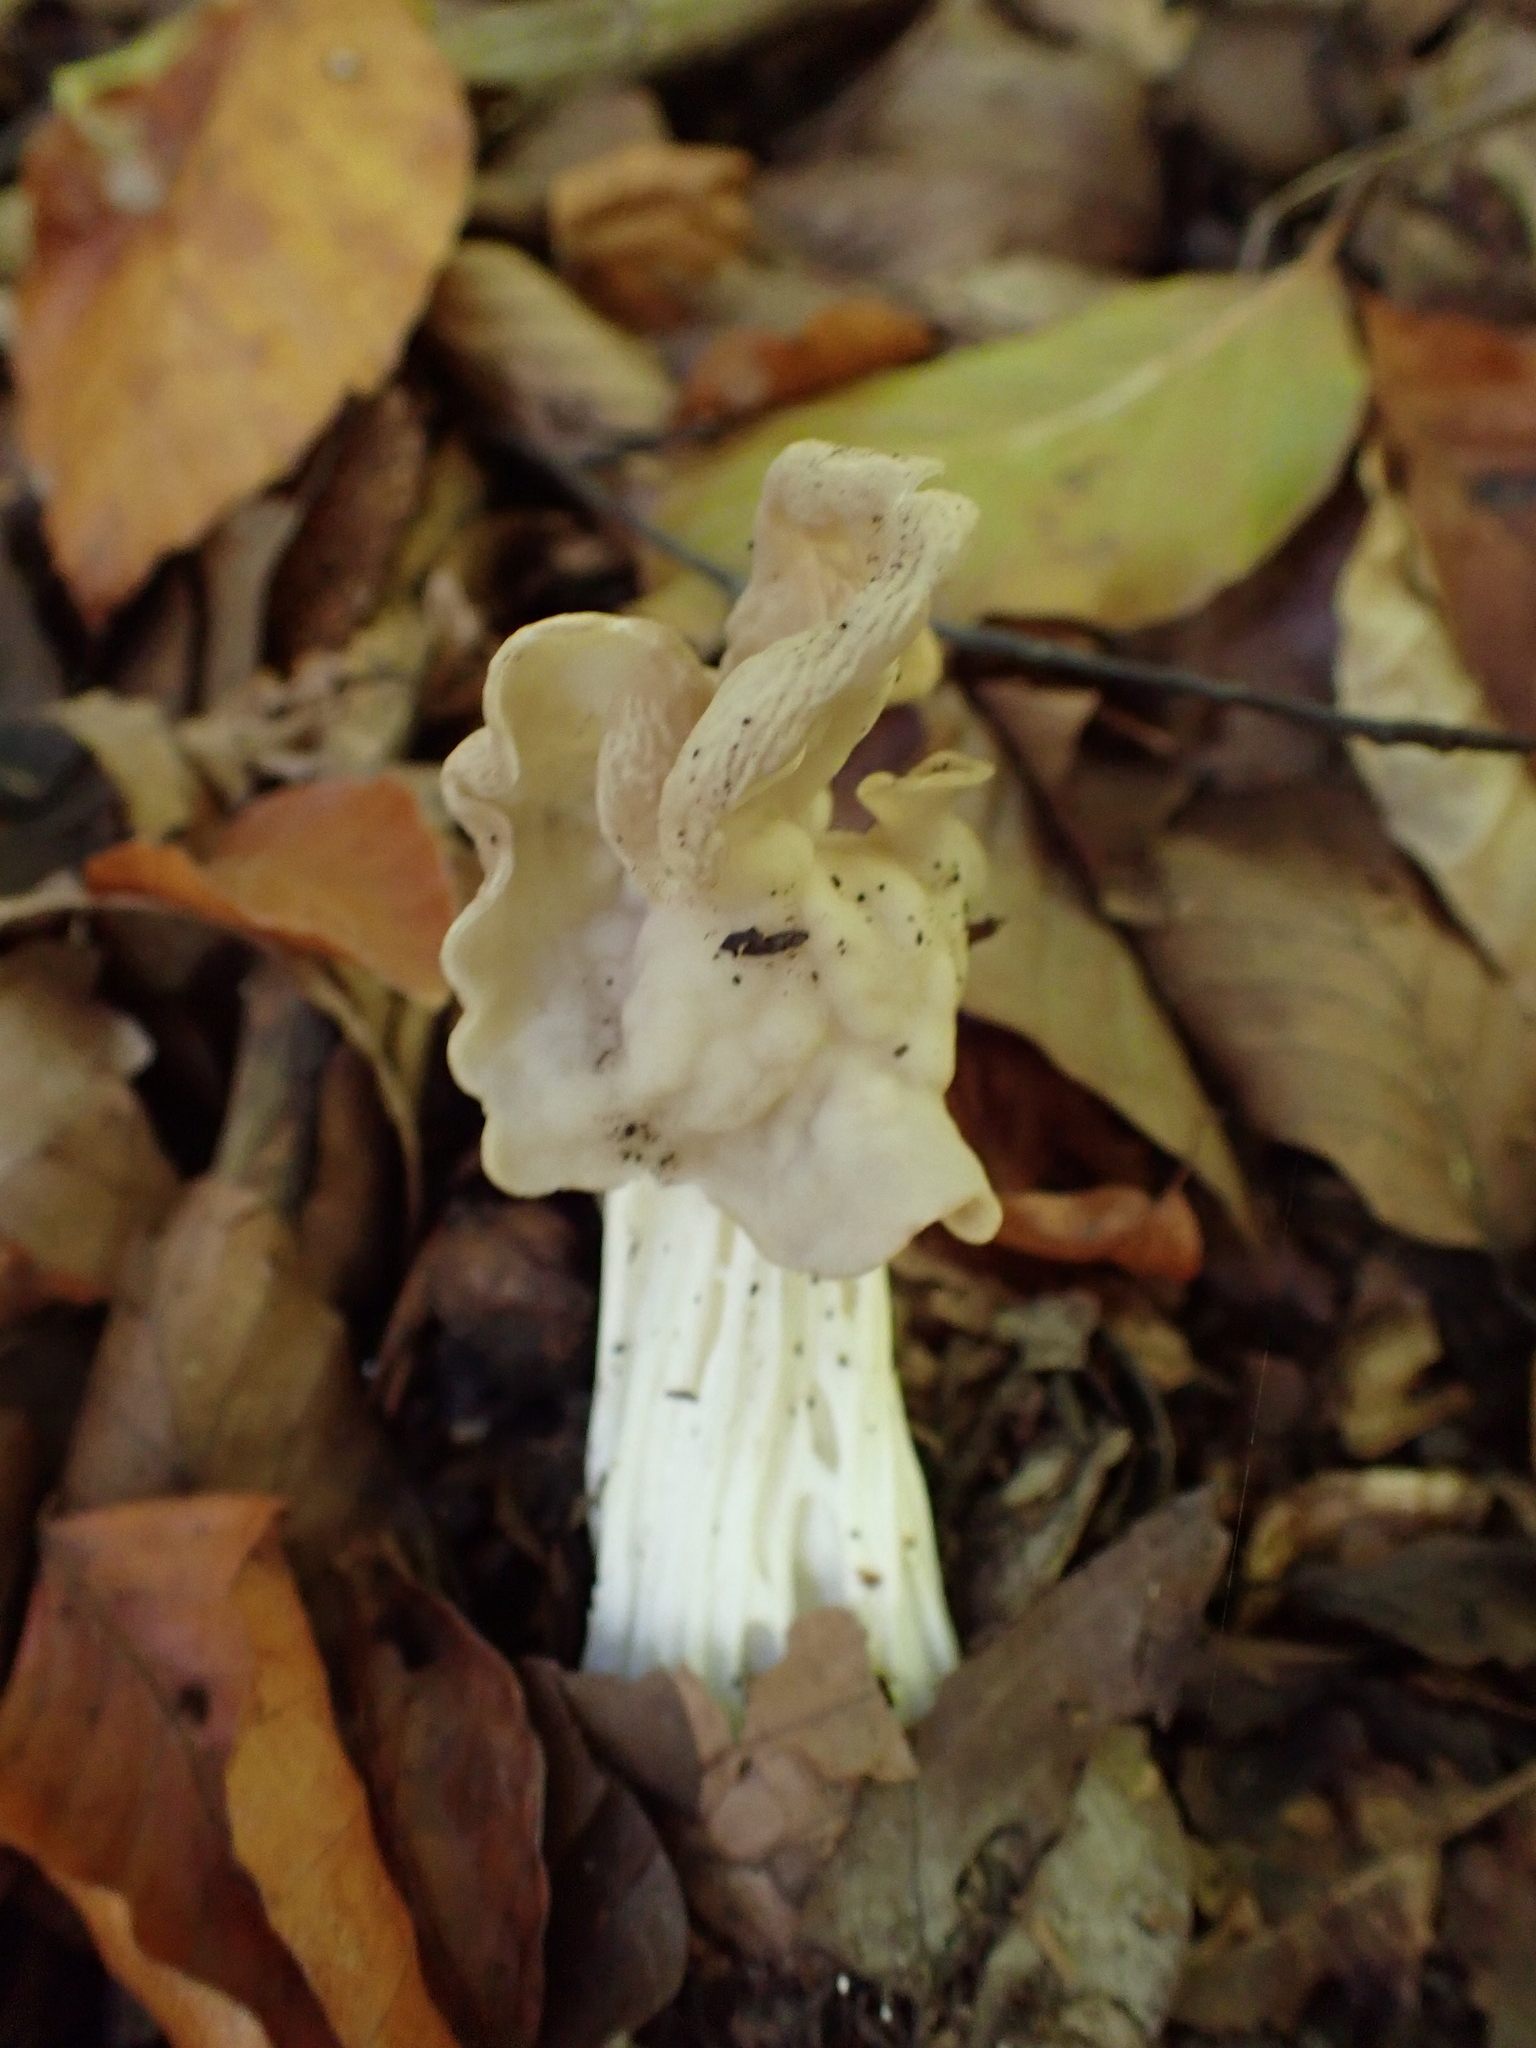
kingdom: Fungi
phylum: Ascomycota
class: Pezizomycetes
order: Pezizales
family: Helvellaceae
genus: Helvella
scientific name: Helvella crispa
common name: White saddle
